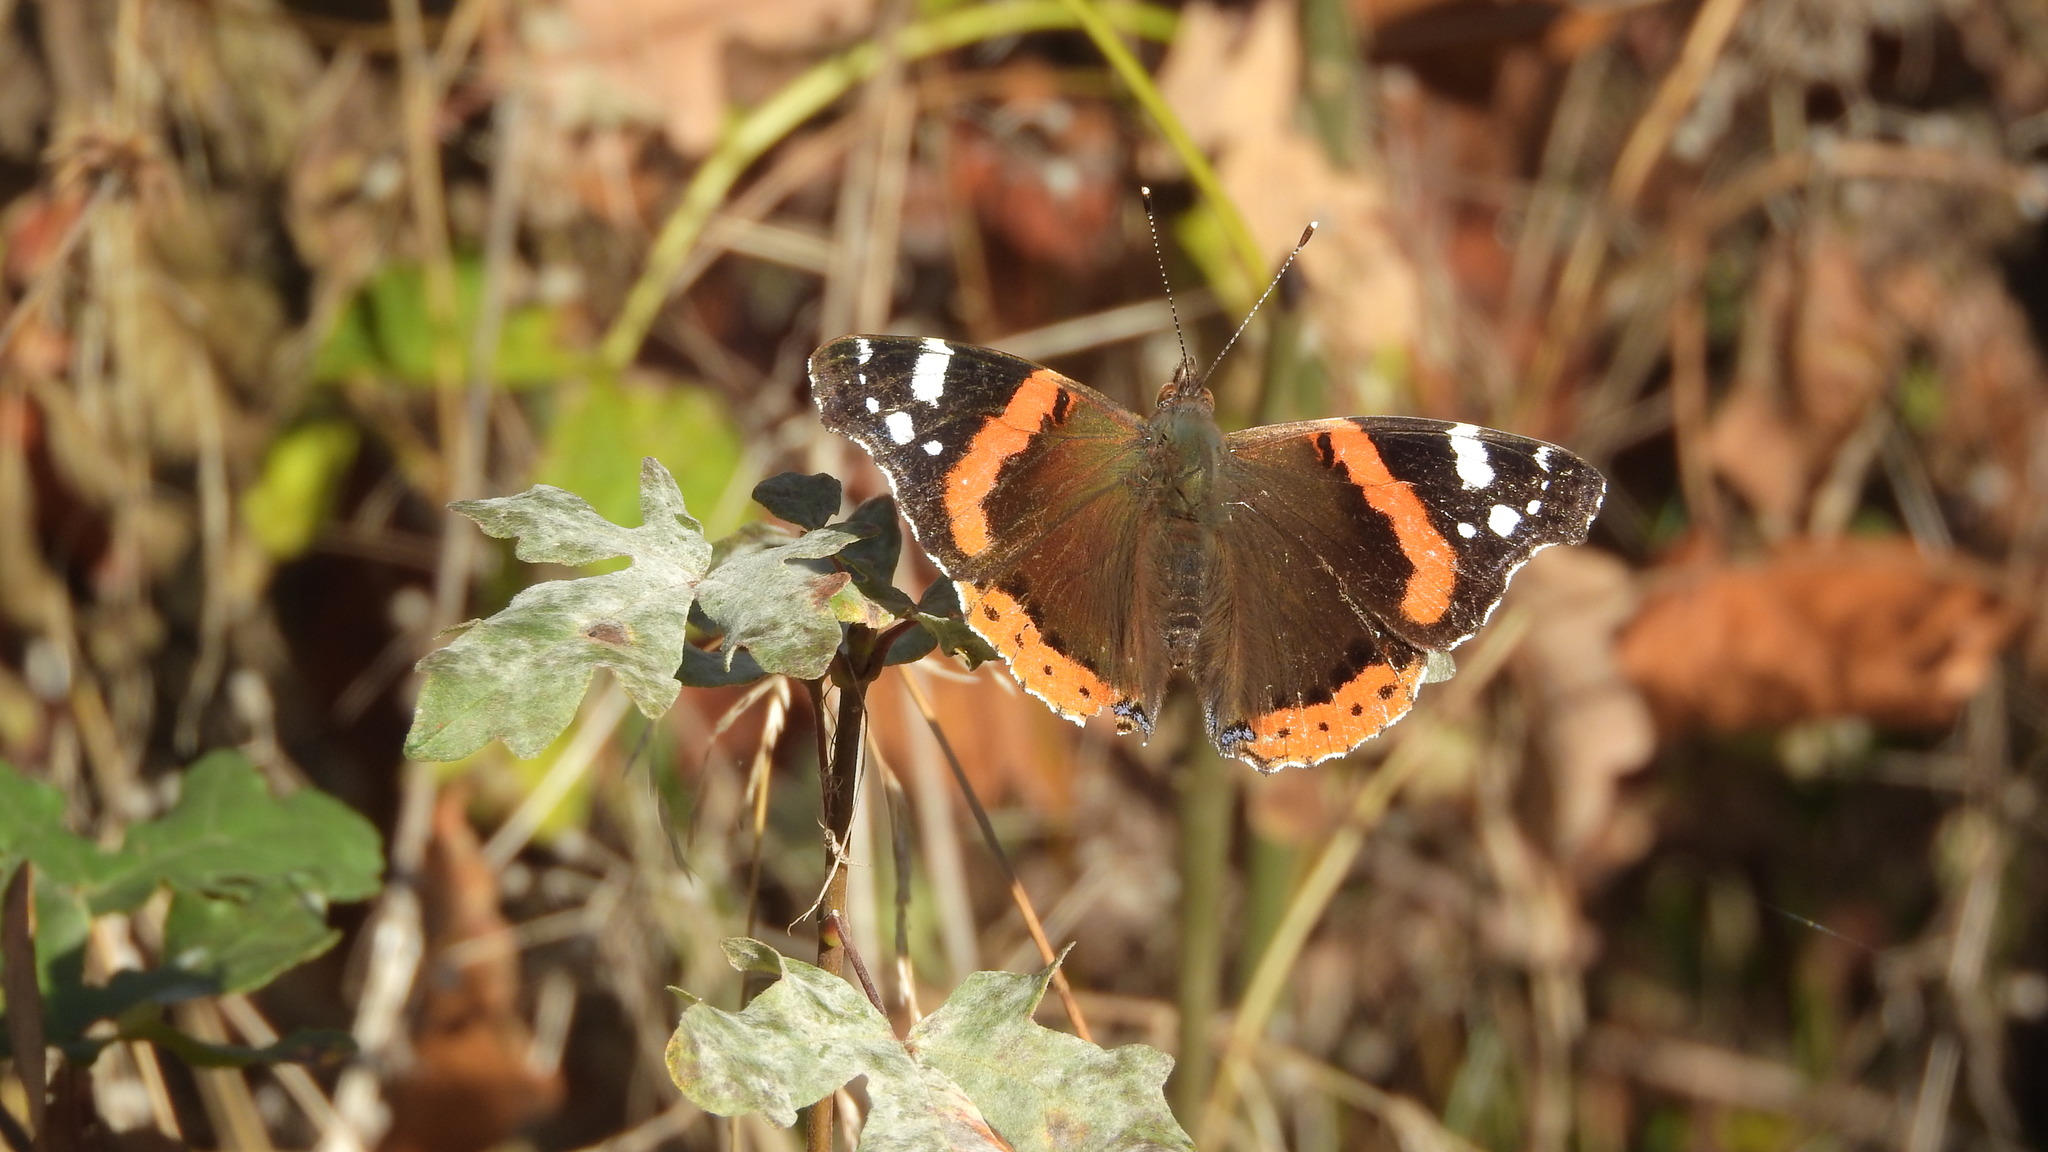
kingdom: Animalia
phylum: Arthropoda
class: Insecta
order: Lepidoptera
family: Nymphalidae
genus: Vanessa
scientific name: Vanessa atalanta
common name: Red admiral
